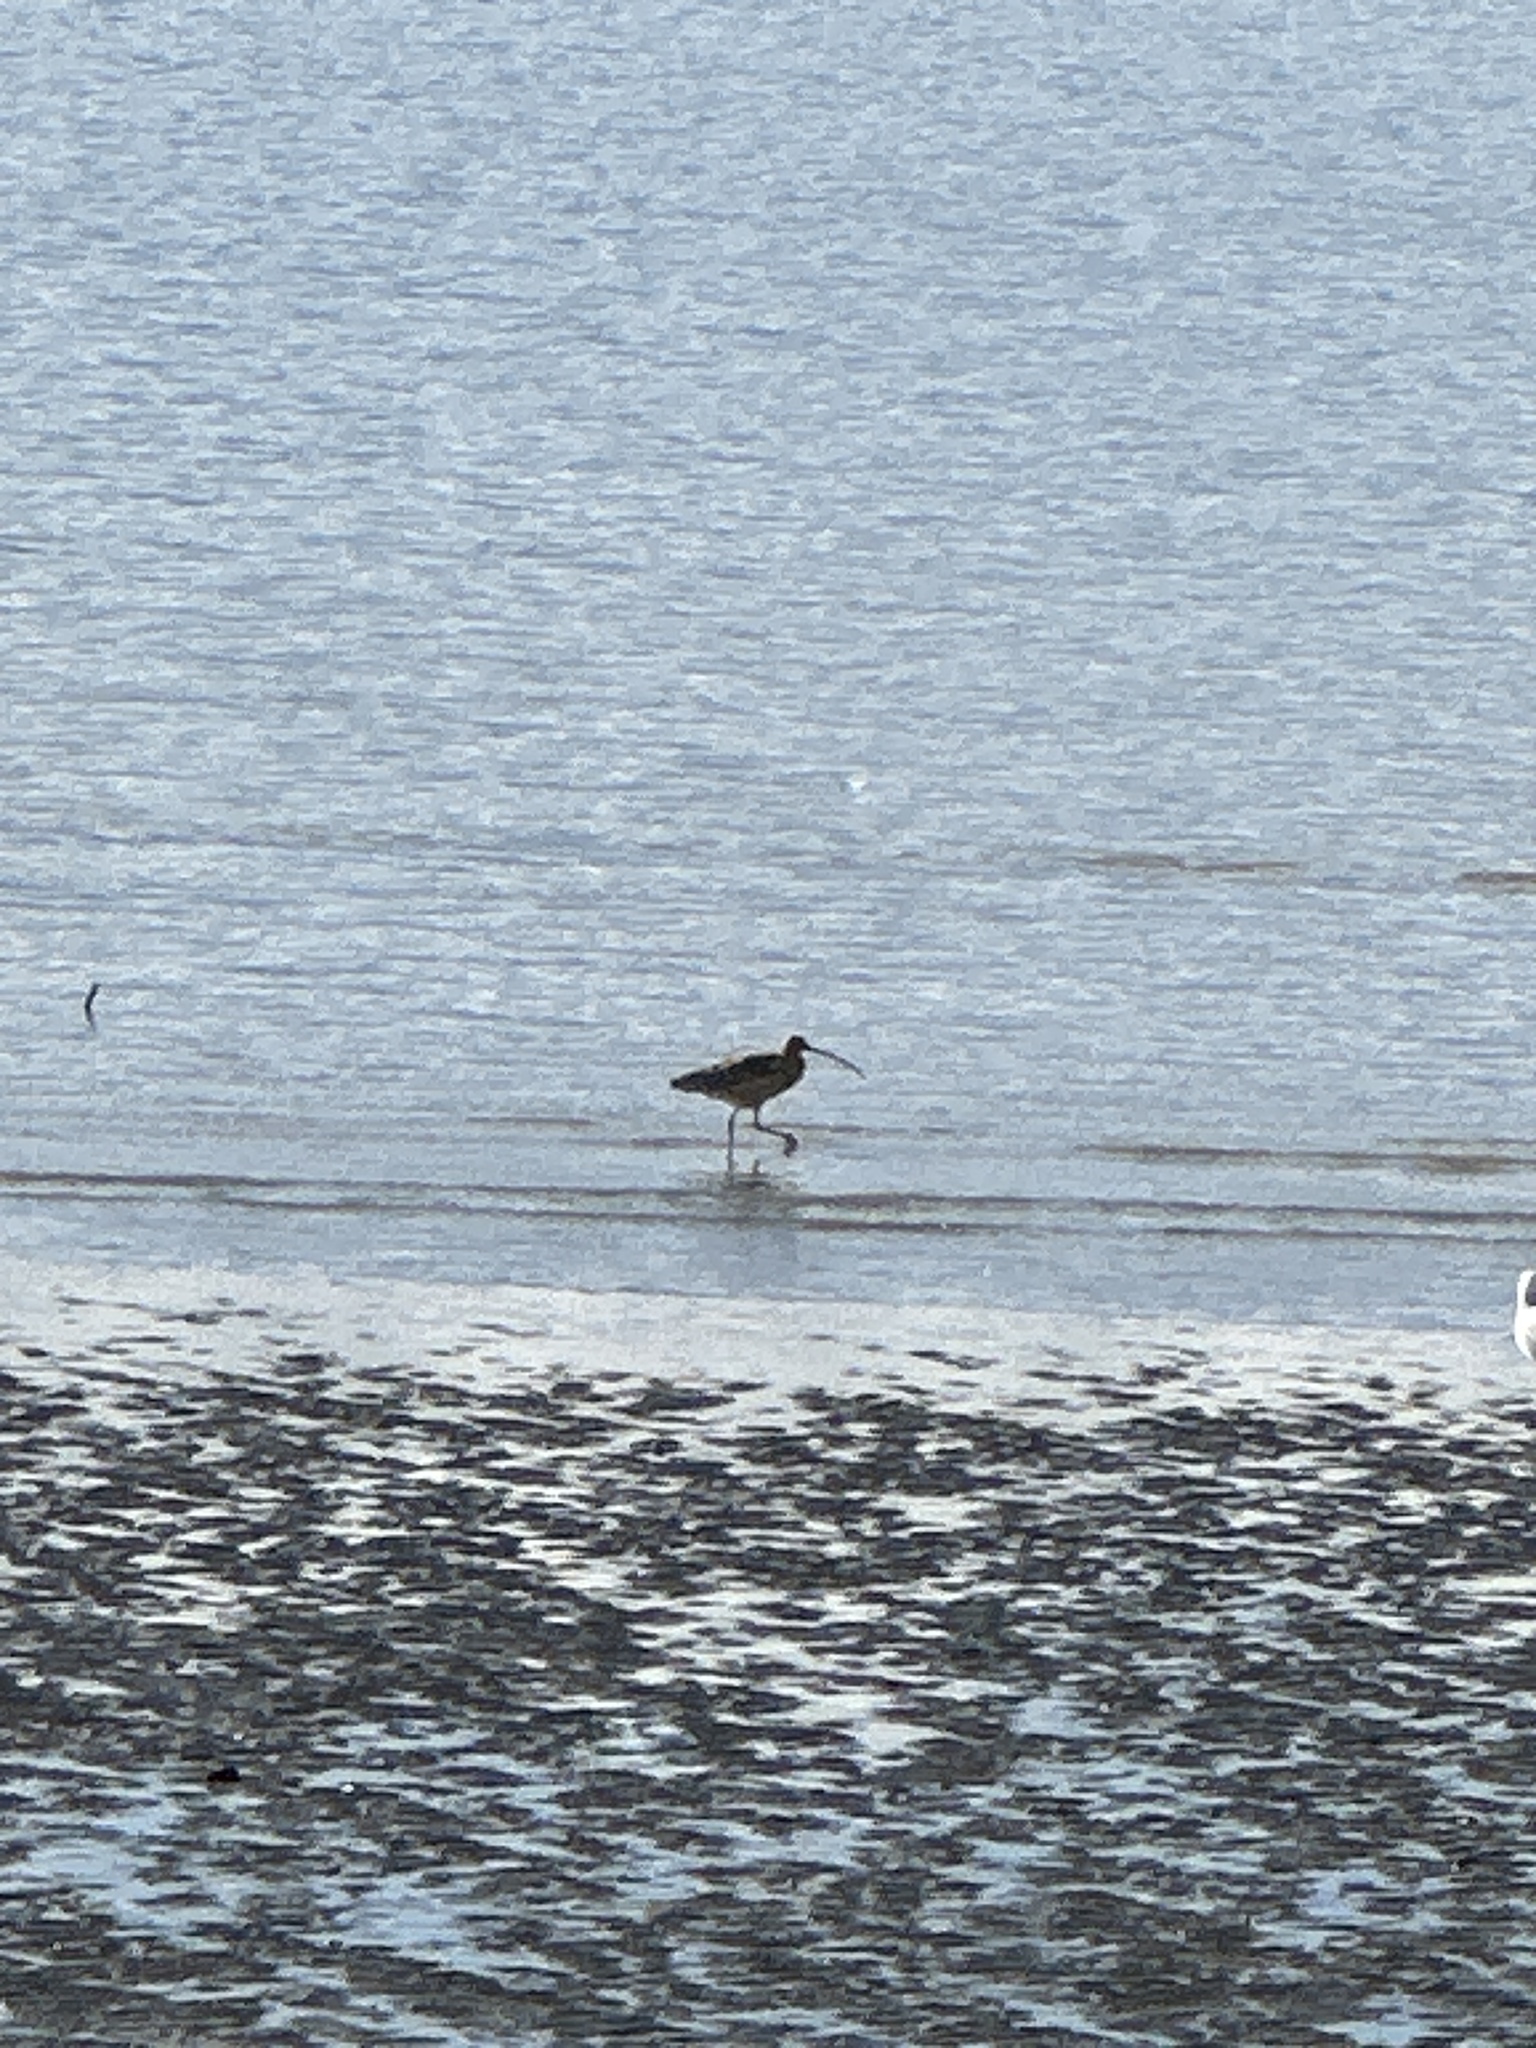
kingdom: Animalia
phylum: Chordata
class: Aves
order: Charadriiformes
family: Scolopacidae
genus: Numenius
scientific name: Numenius americanus
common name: Long-billed curlew
